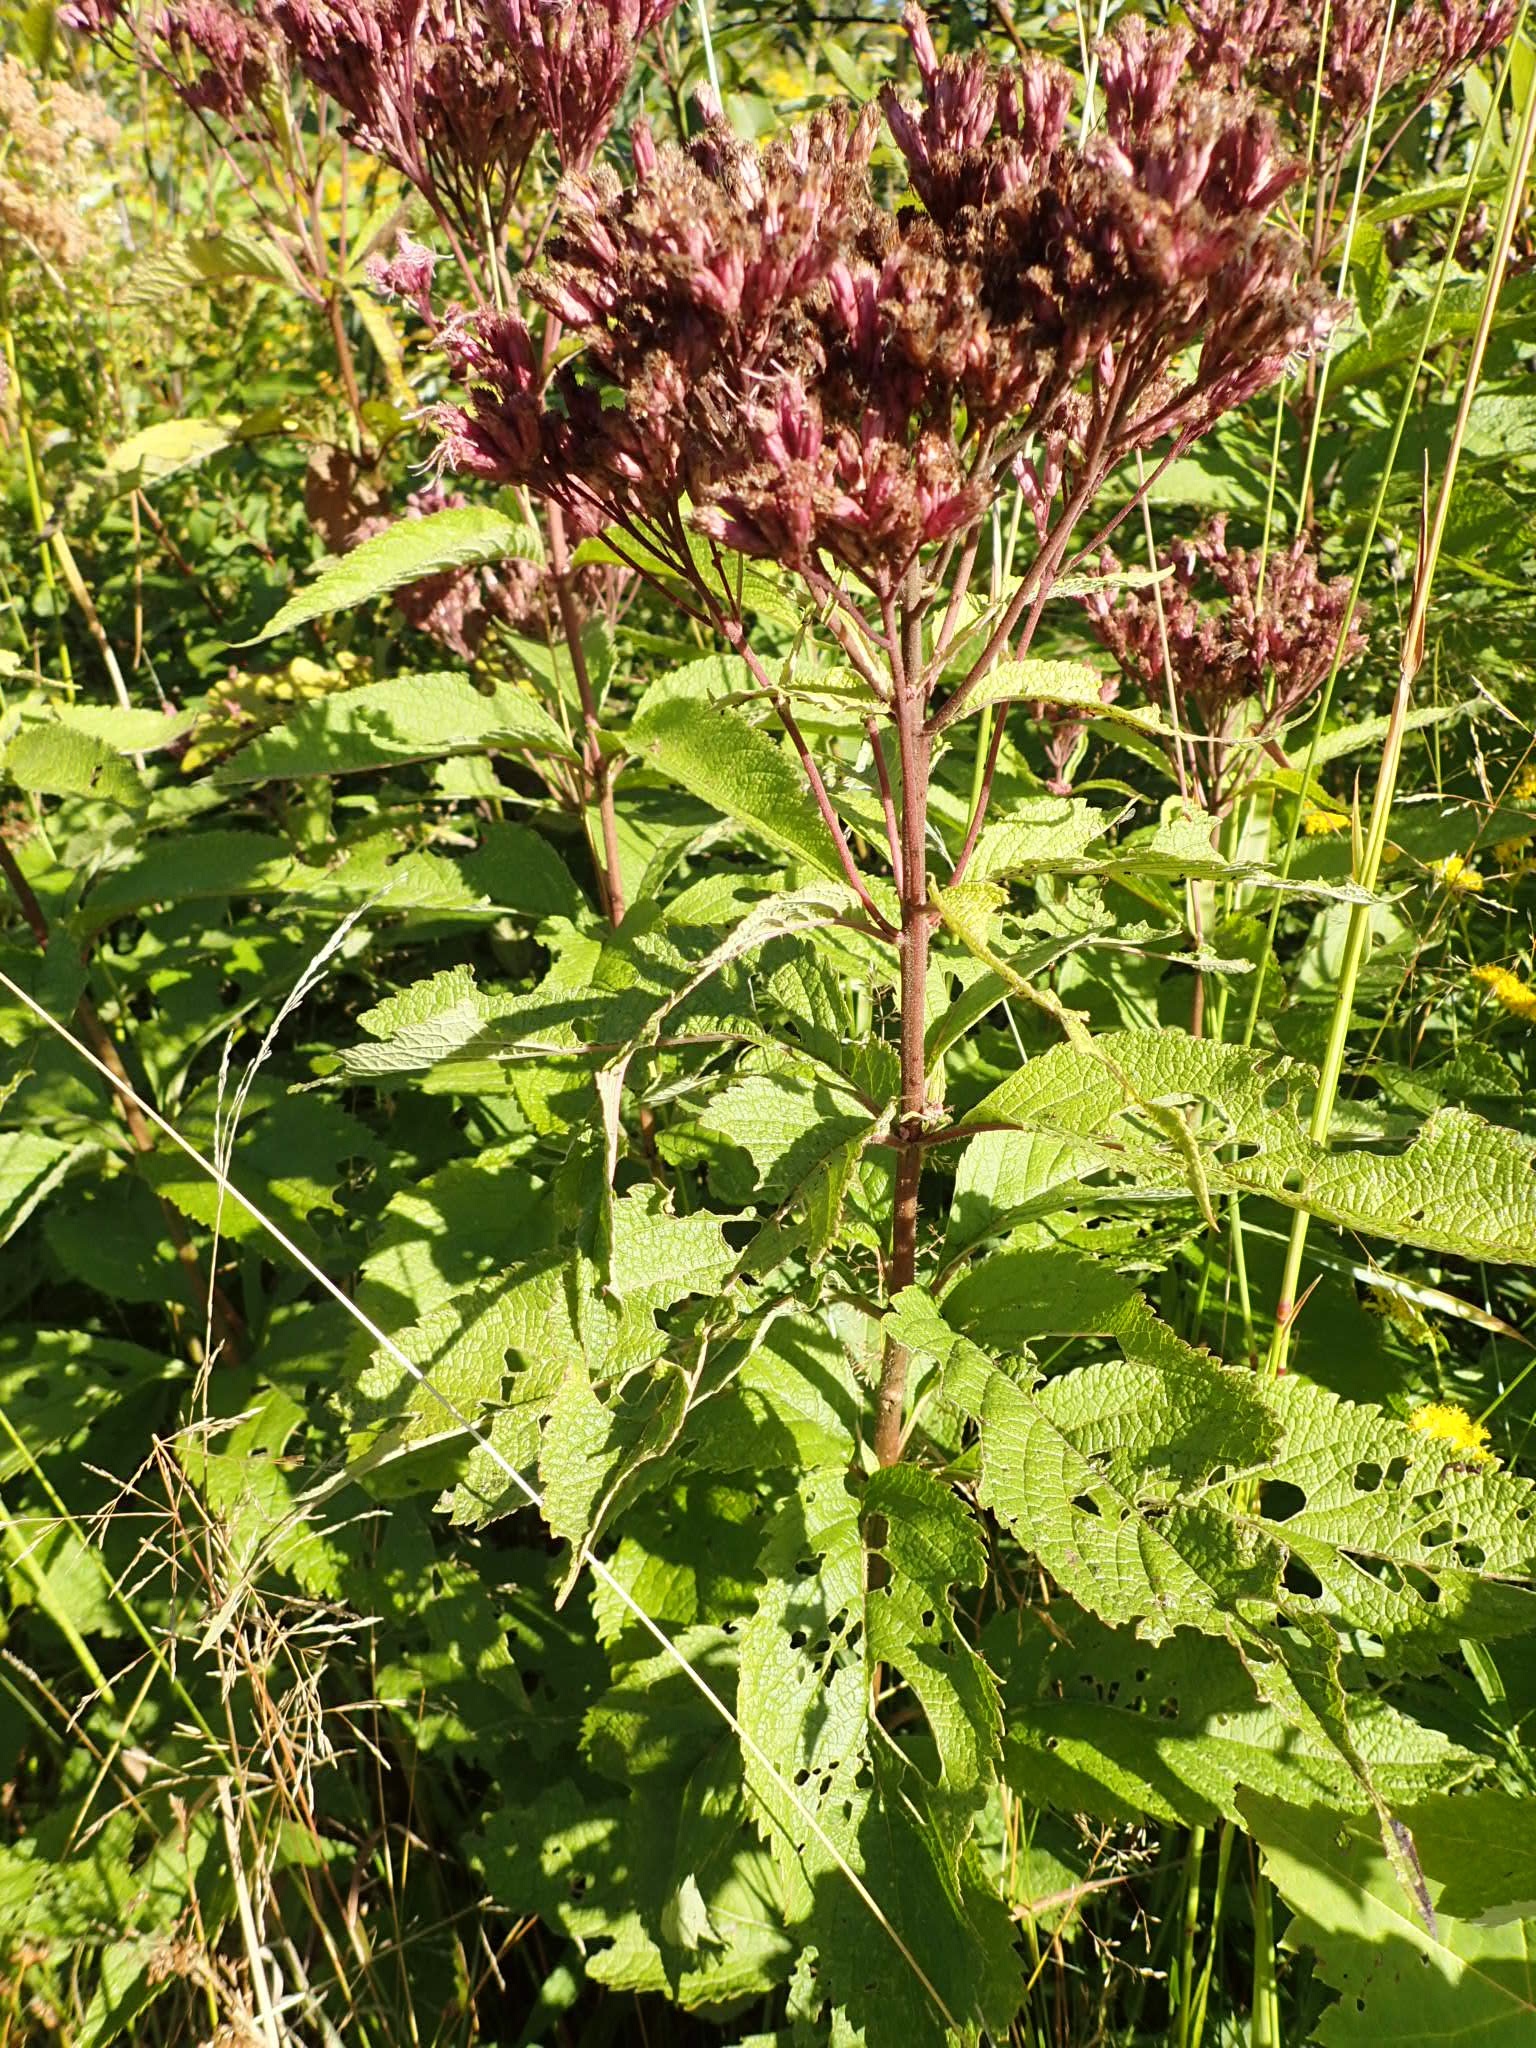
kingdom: Plantae
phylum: Tracheophyta
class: Magnoliopsida
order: Asterales
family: Asteraceae
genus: Eutrochium
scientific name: Eutrochium maculatum
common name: Spotted joe pye weed
